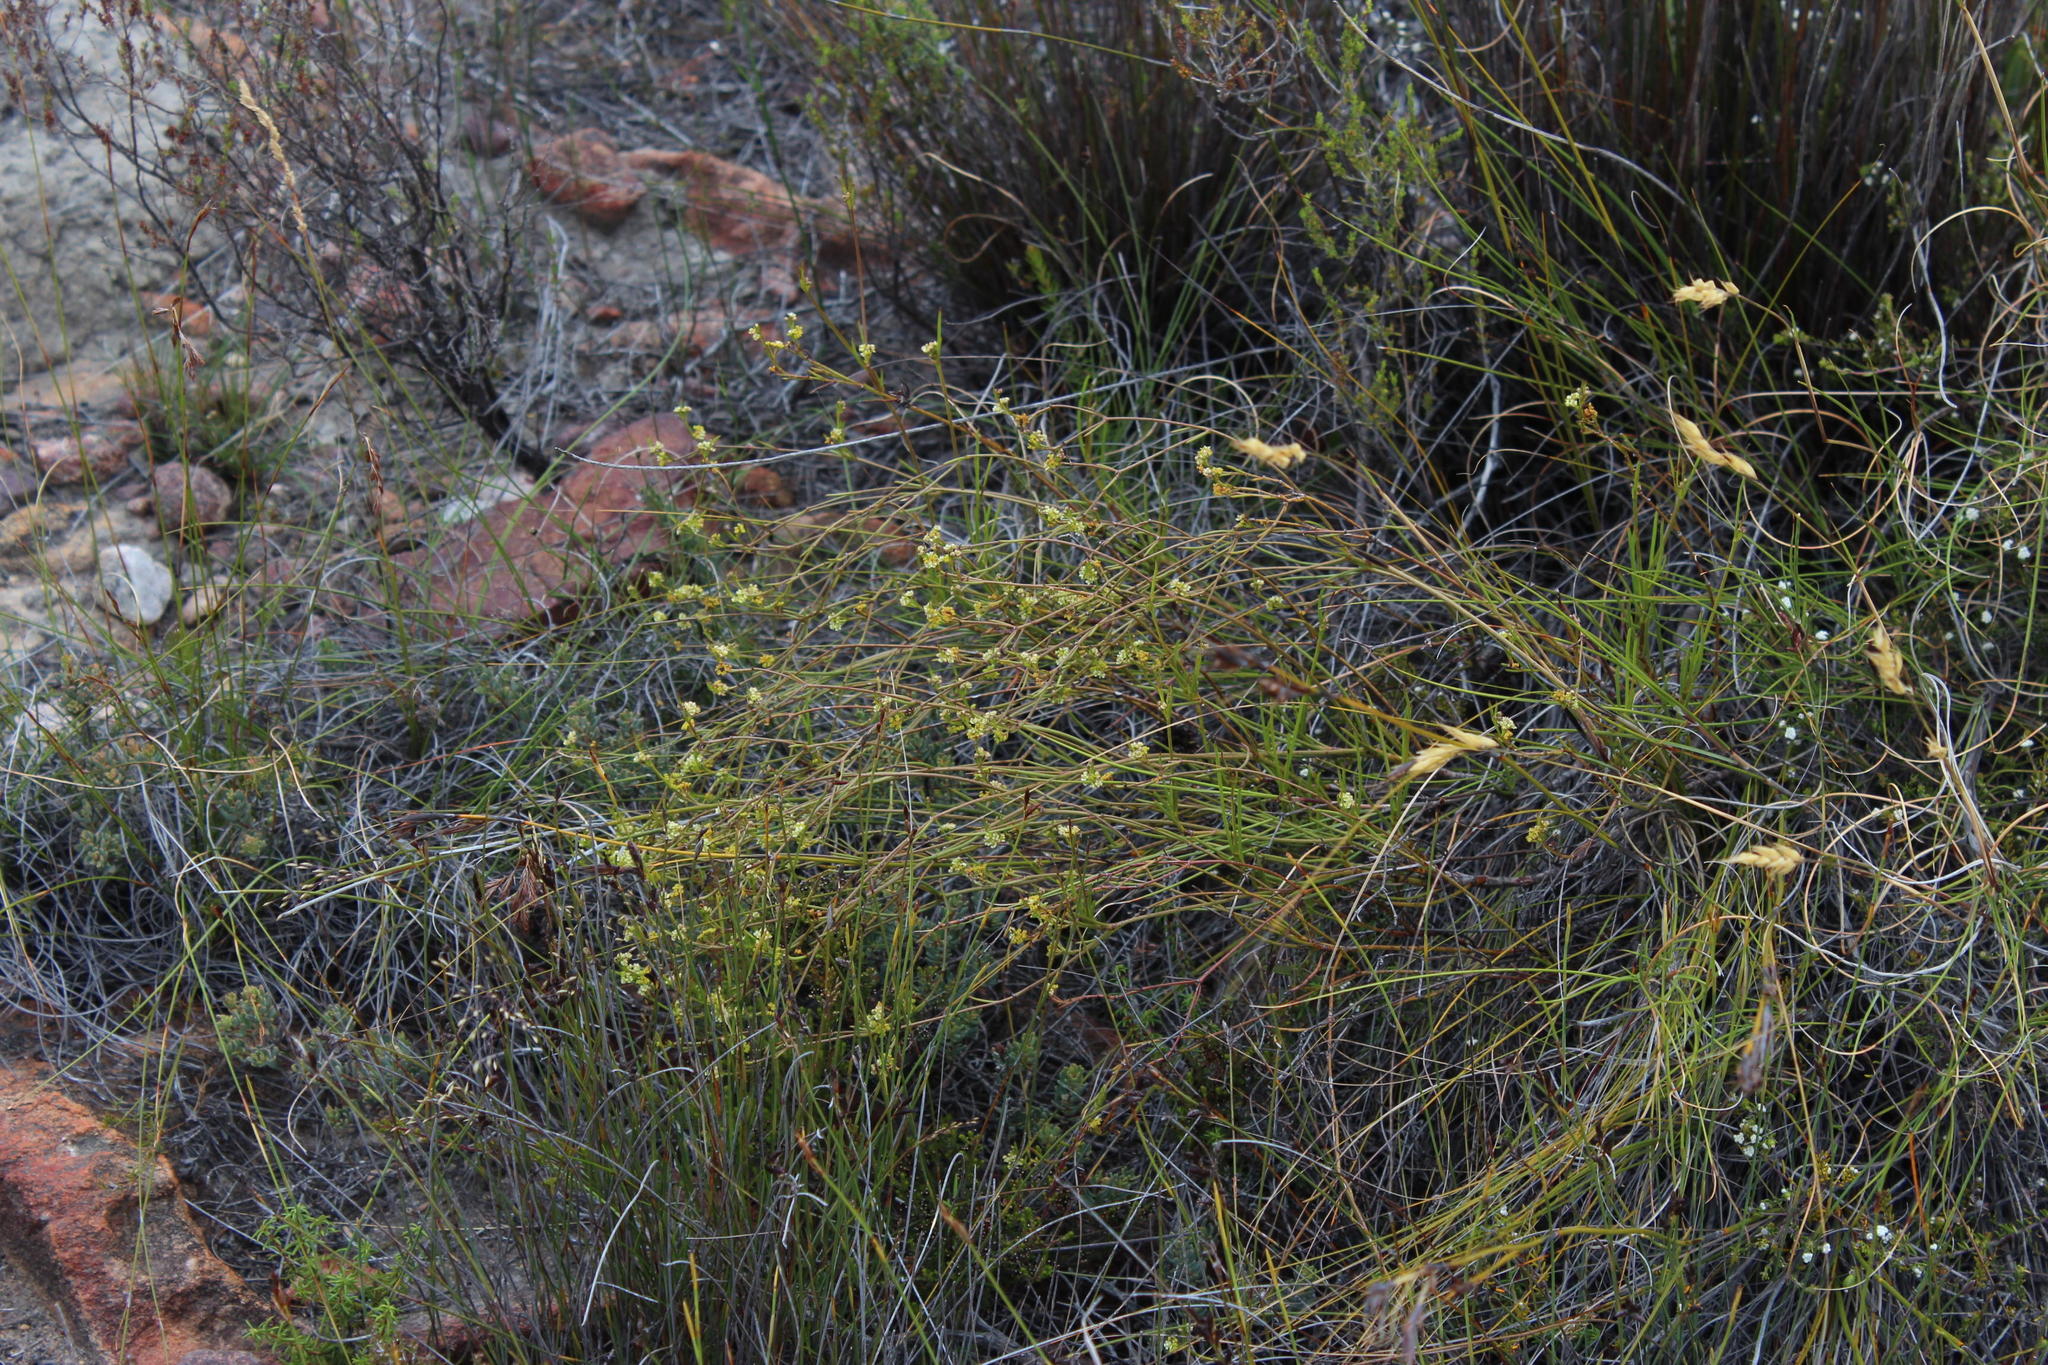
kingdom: Plantae
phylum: Tracheophyta
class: Magnoliopsida
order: Apiales
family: Apiaceae
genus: Centella
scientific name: Centella thesioides
